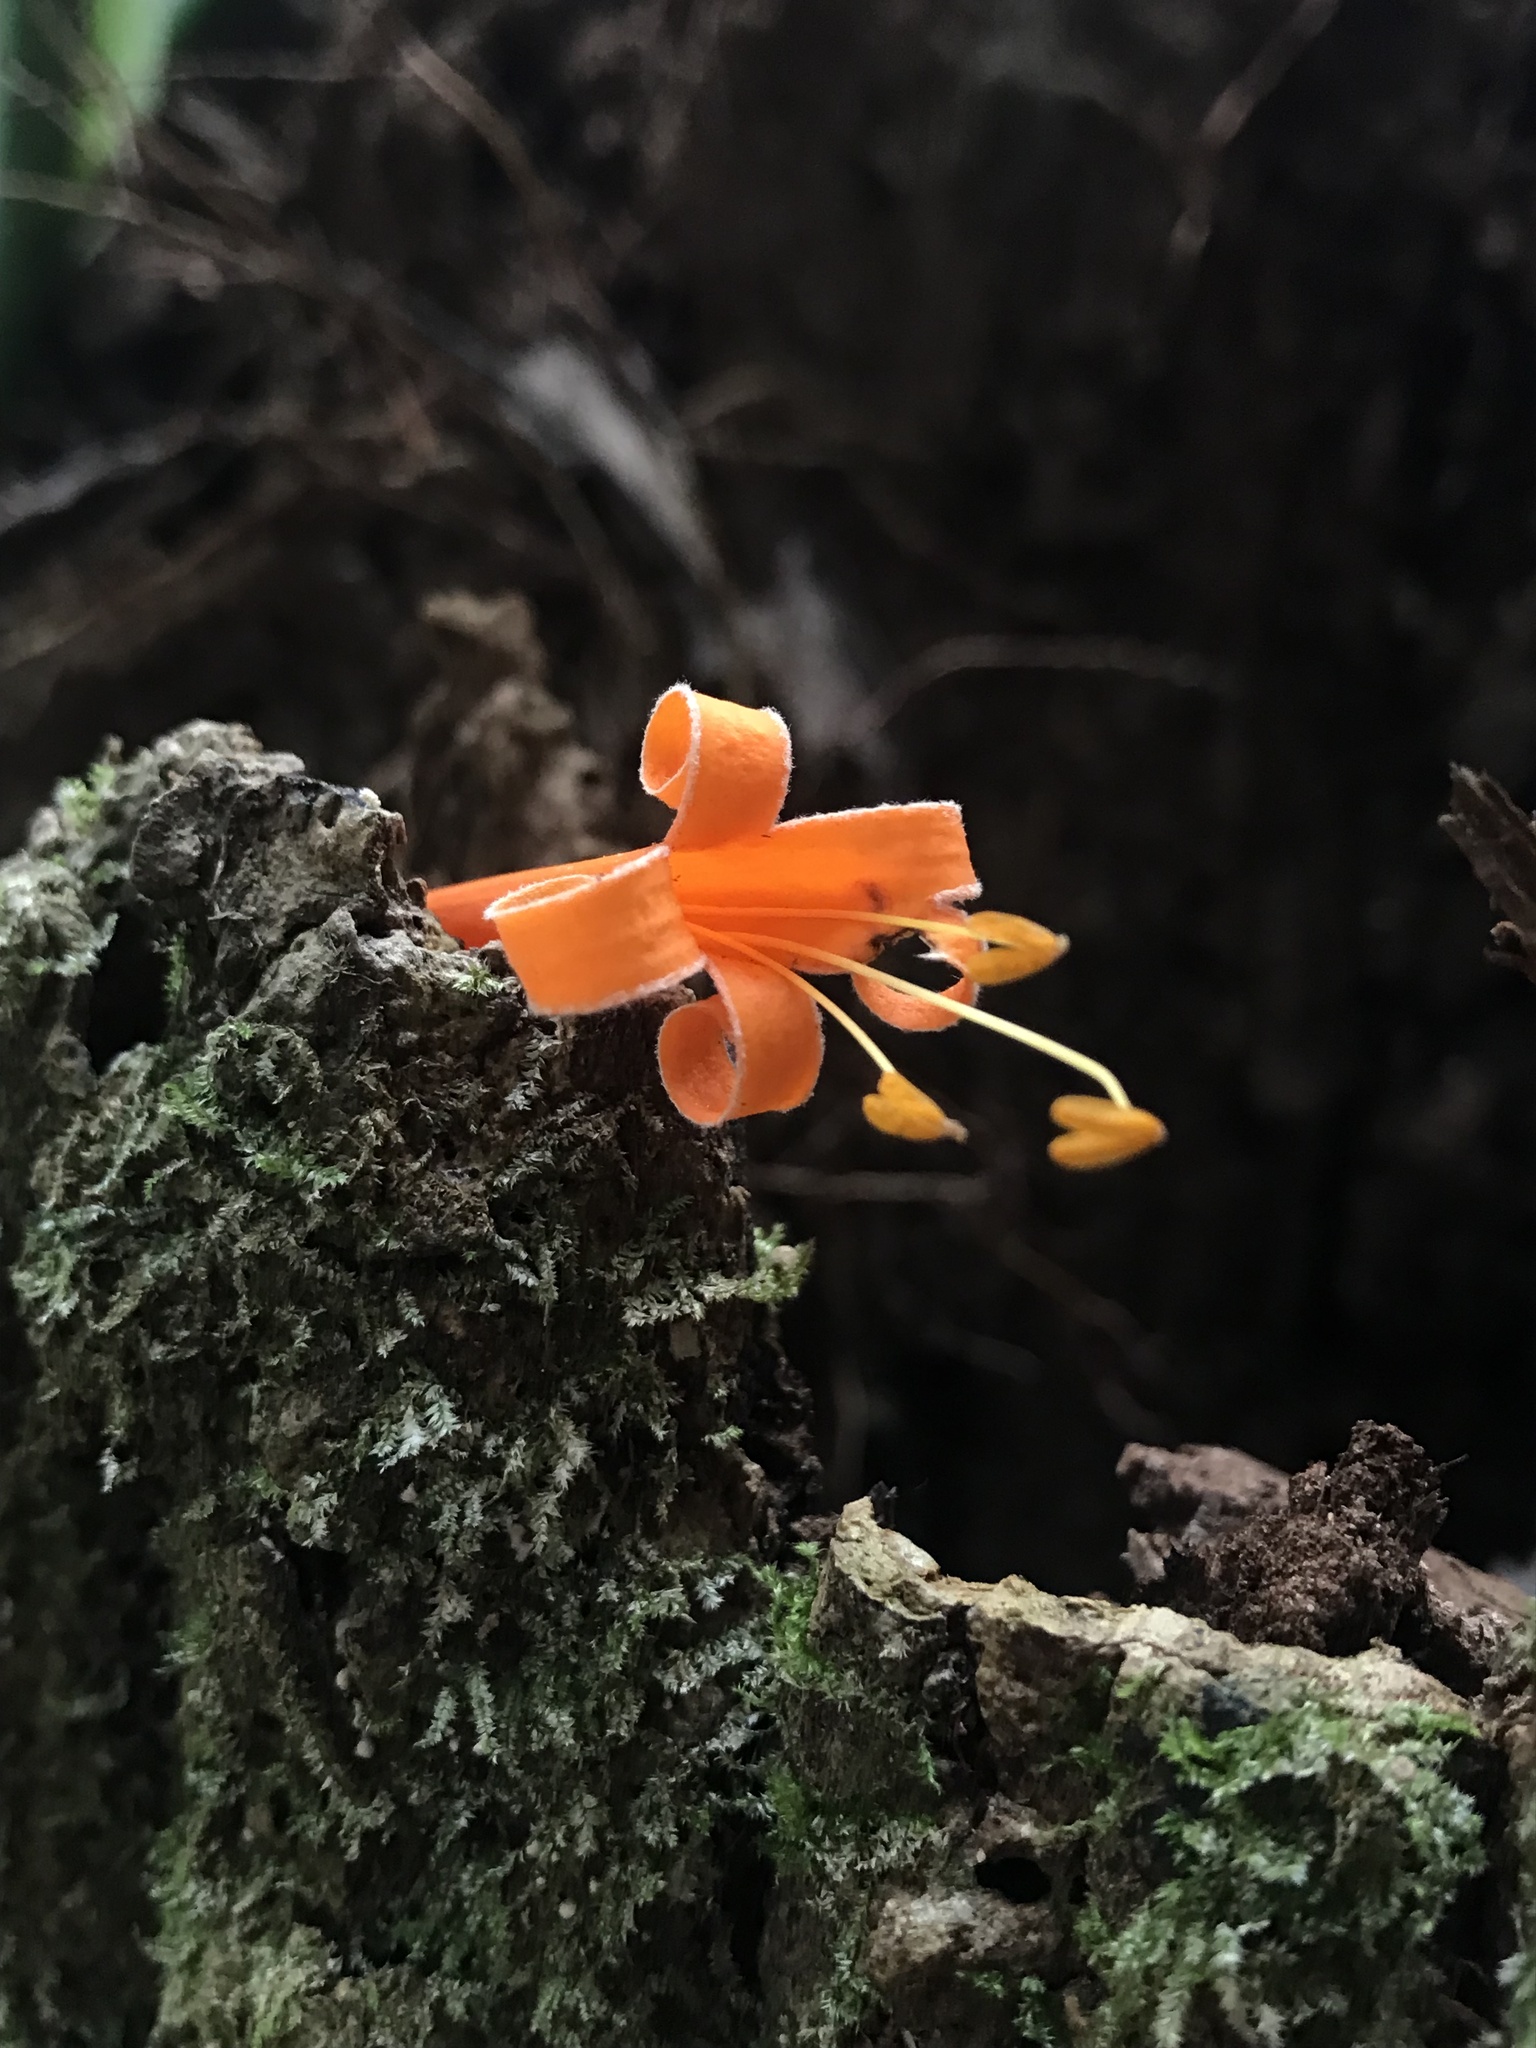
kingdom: Plantae
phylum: Tracheophyta
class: Magnoliopsida
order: Lamiales
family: Bignoniaceae
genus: Pyrostegia
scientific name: Pyrostegia venusta
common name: Flamevine
